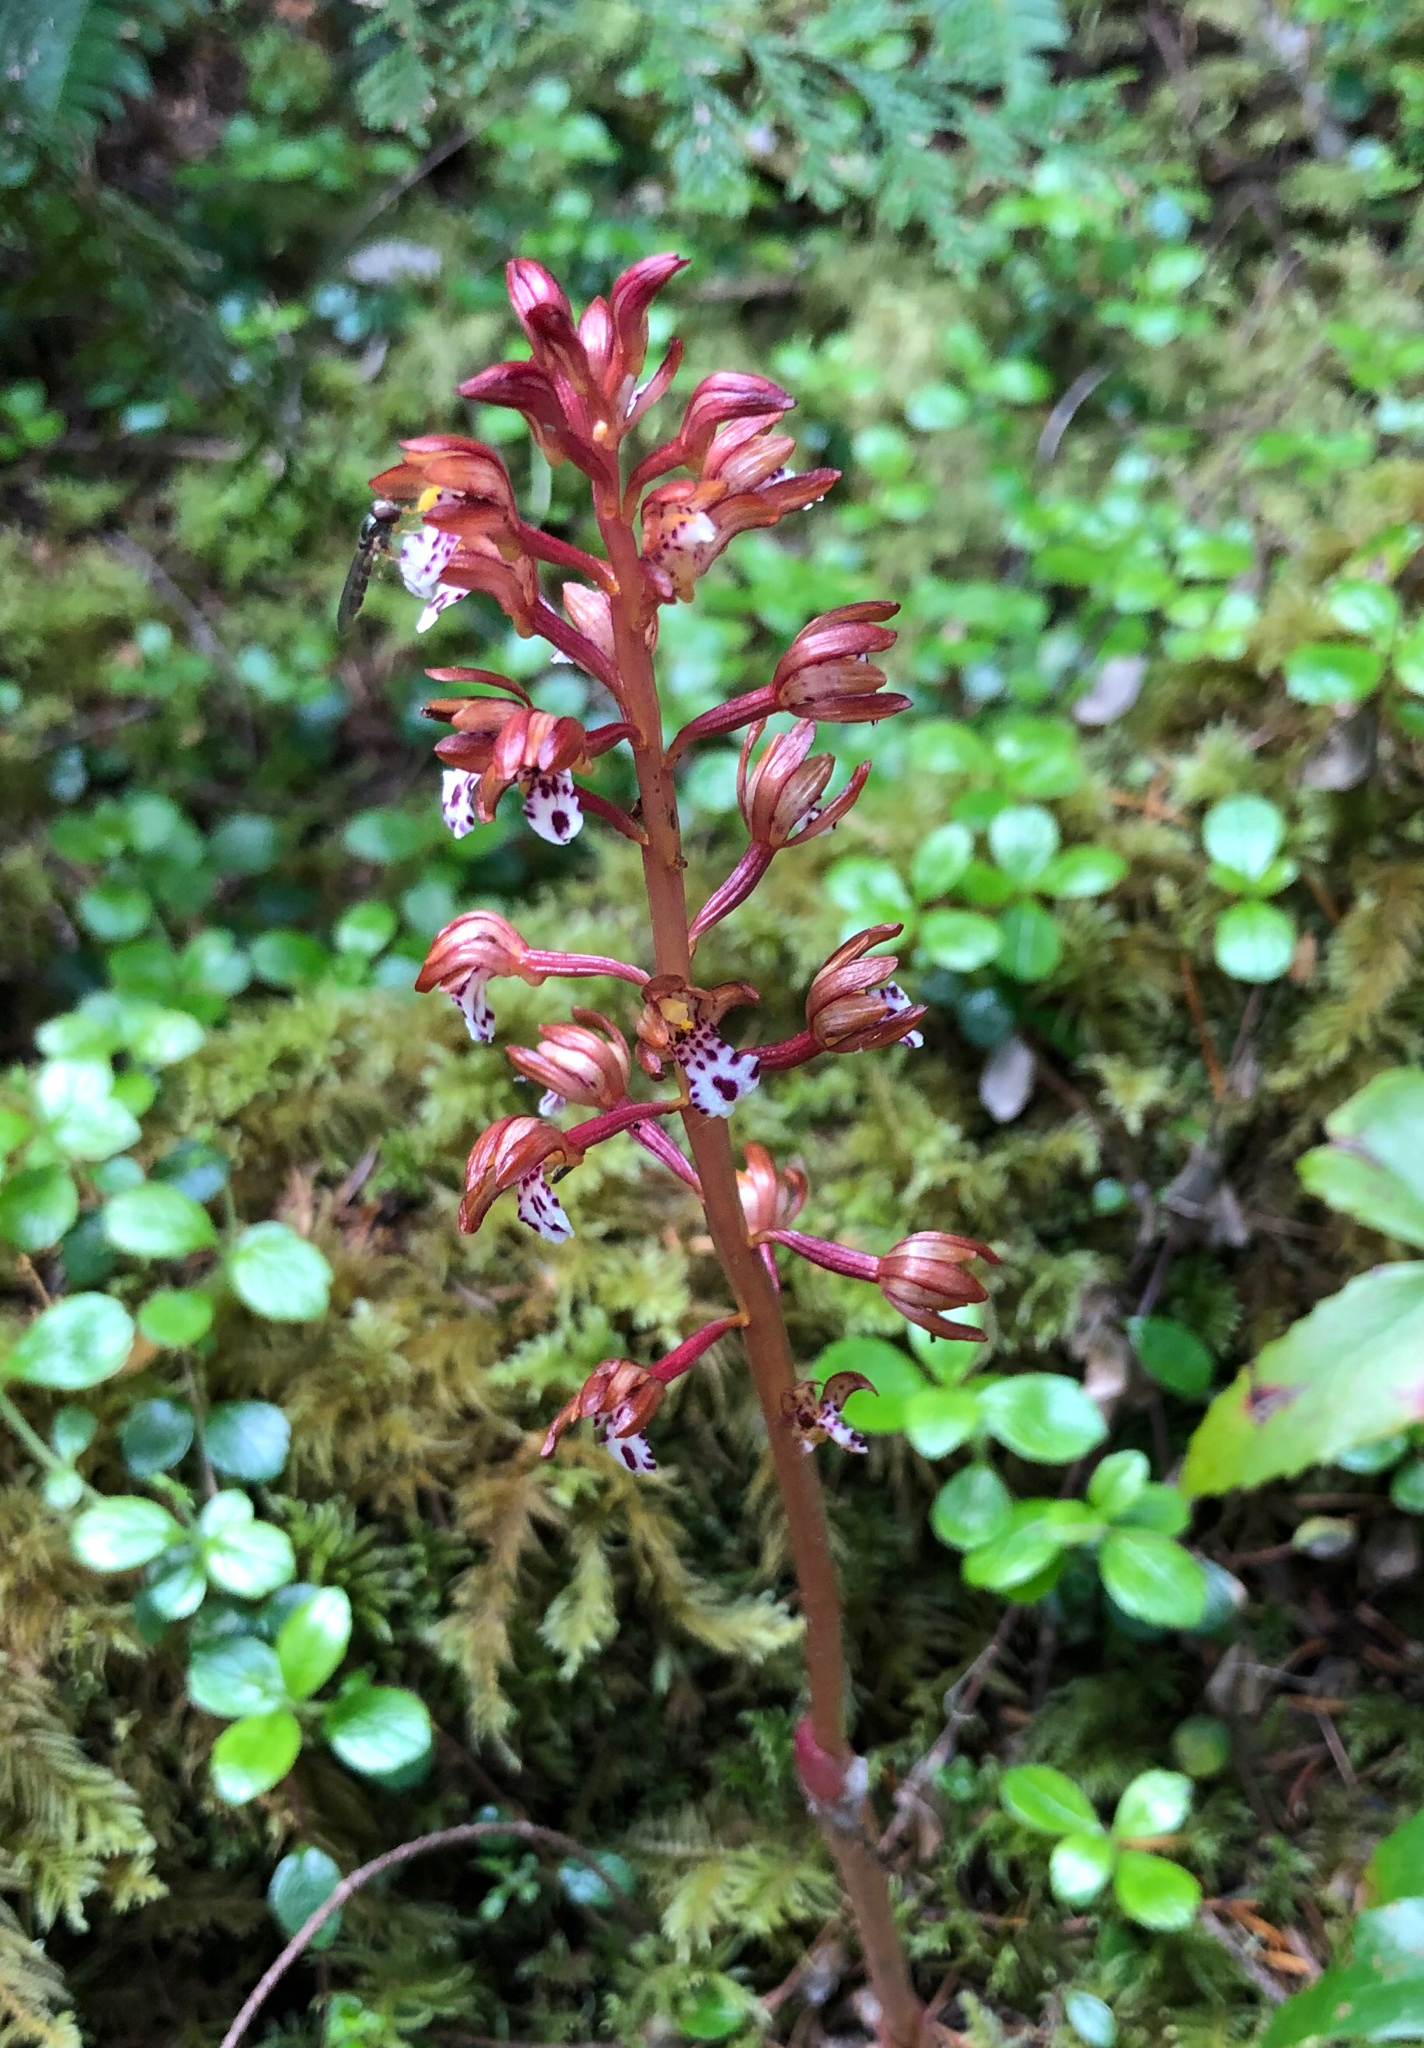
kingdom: Plantae
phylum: Tracheophyta
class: Liliopsida
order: Asparagales
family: Orchidaceae
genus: Corallorhiza
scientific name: Corallorhiza maculata
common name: Spotted coralroot
